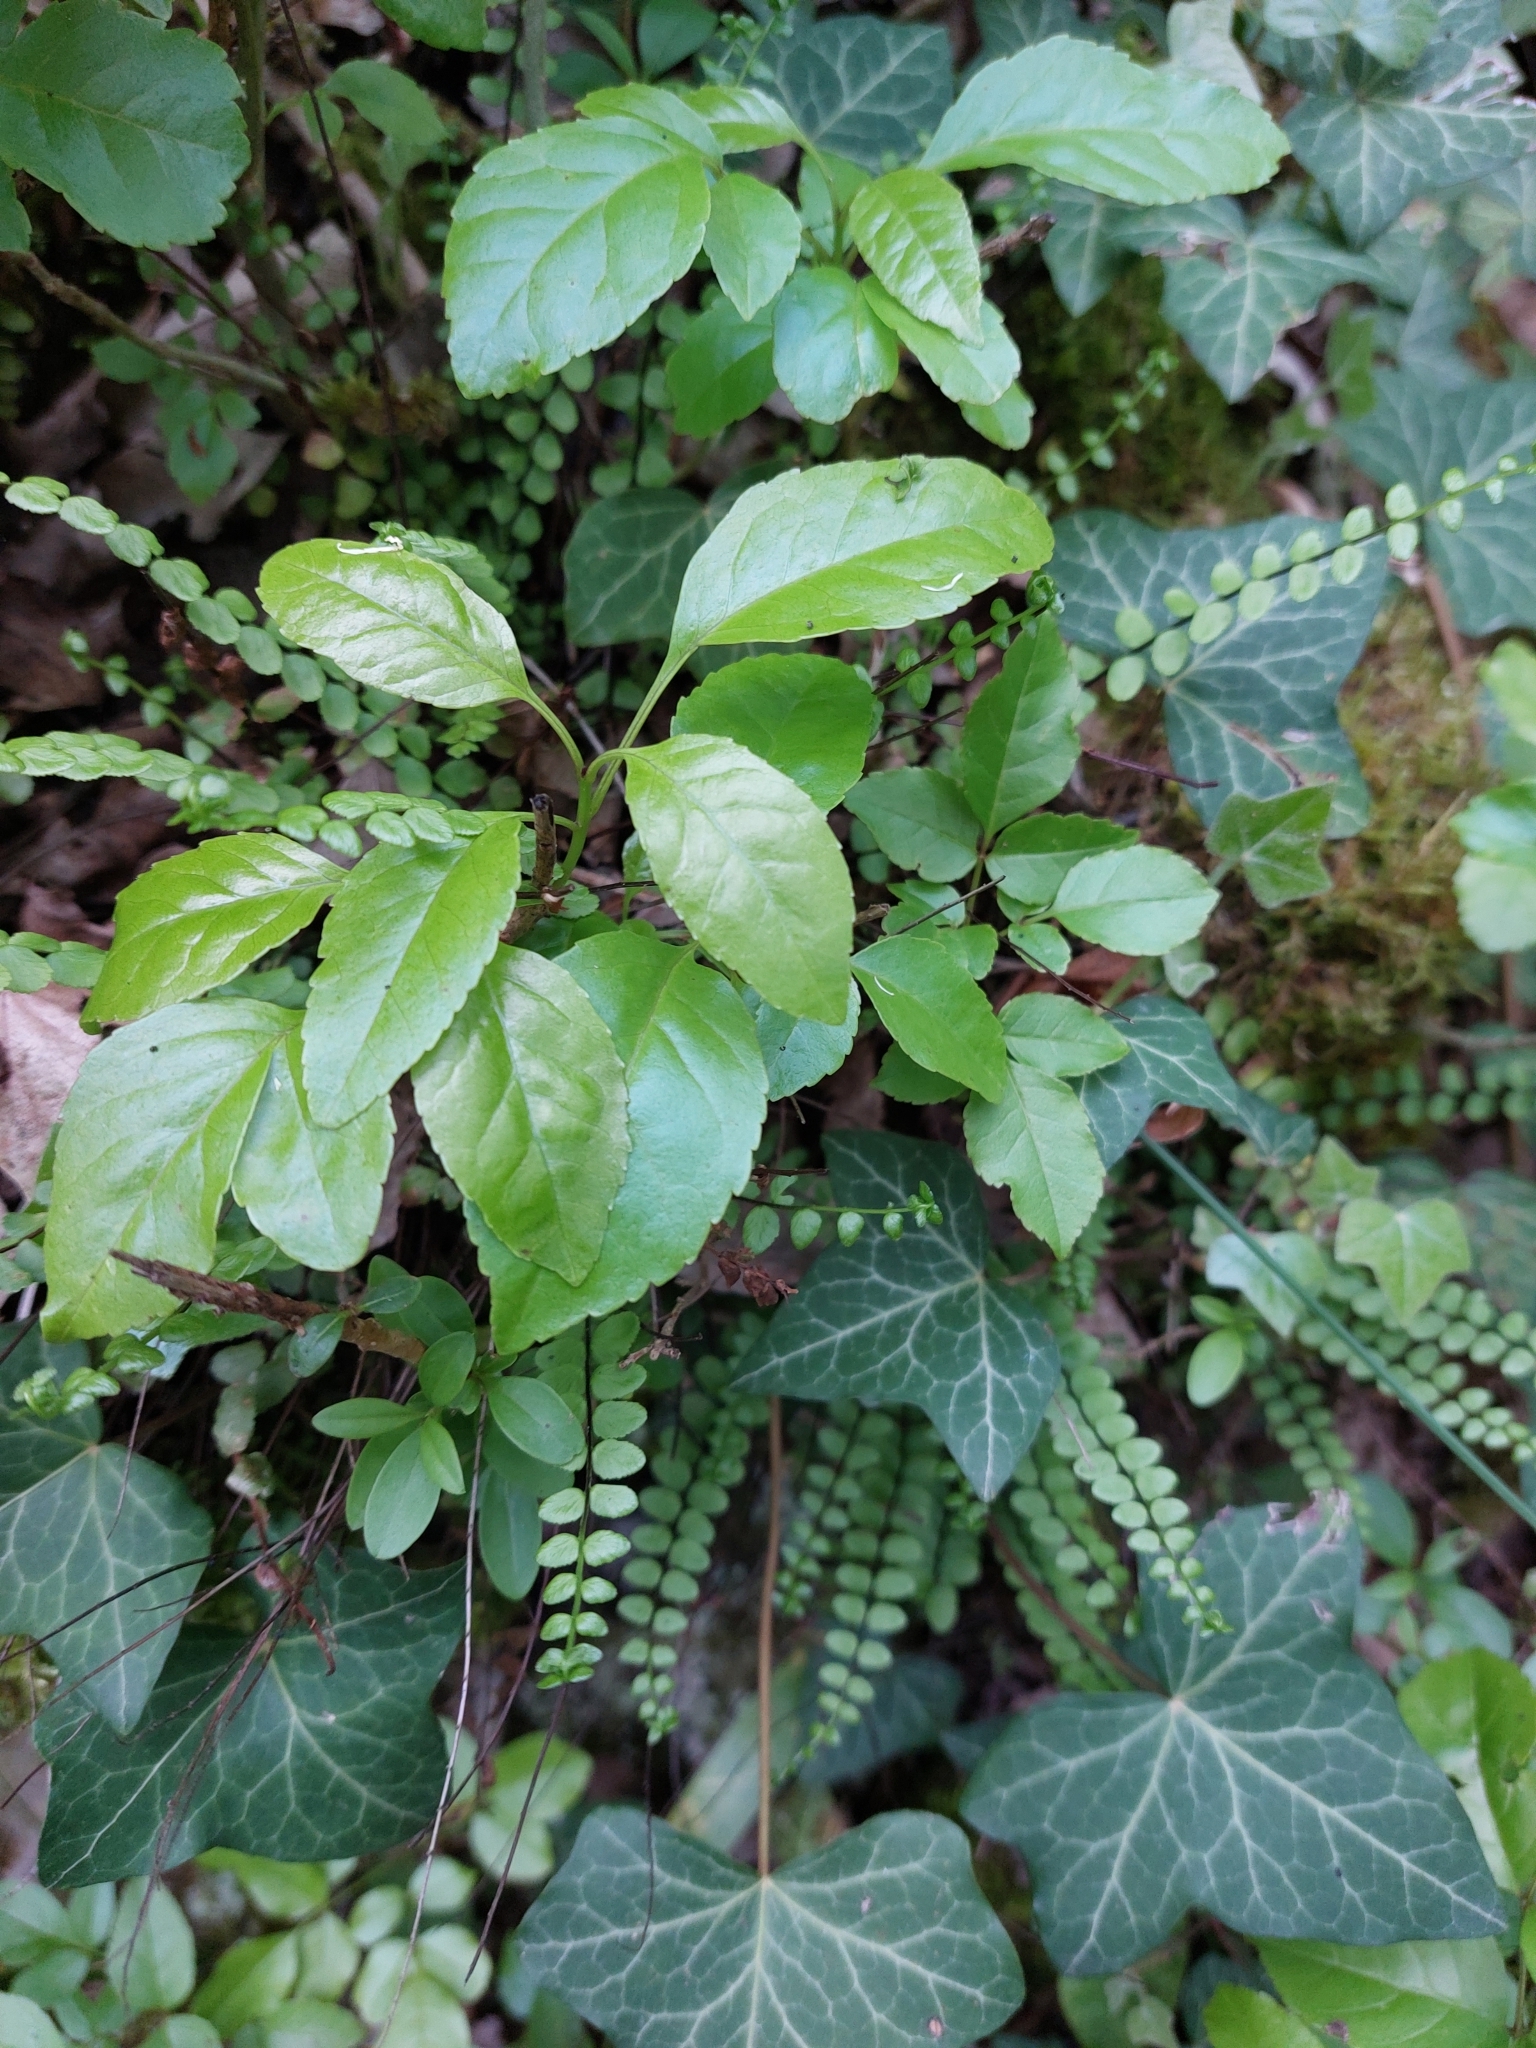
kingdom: Plantae
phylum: Tracheophyta
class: Polypodiopsida
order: Polypodiales
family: Aspleniaceae
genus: Asplenium
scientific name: Asplenium trichomanes
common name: Maidenhair spleenwort
